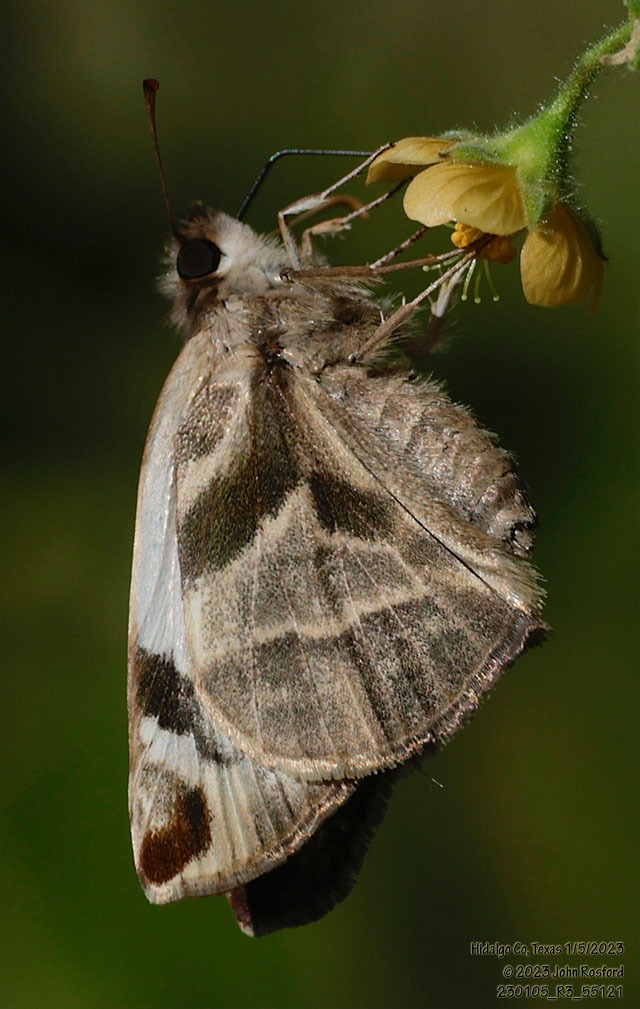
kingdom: Animalia
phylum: Arthropoda
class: Insecta
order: Lepidoptera
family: Hesperiidae
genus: Heliopetes
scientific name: Heliopetes laviana
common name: Laviana white-skipper
